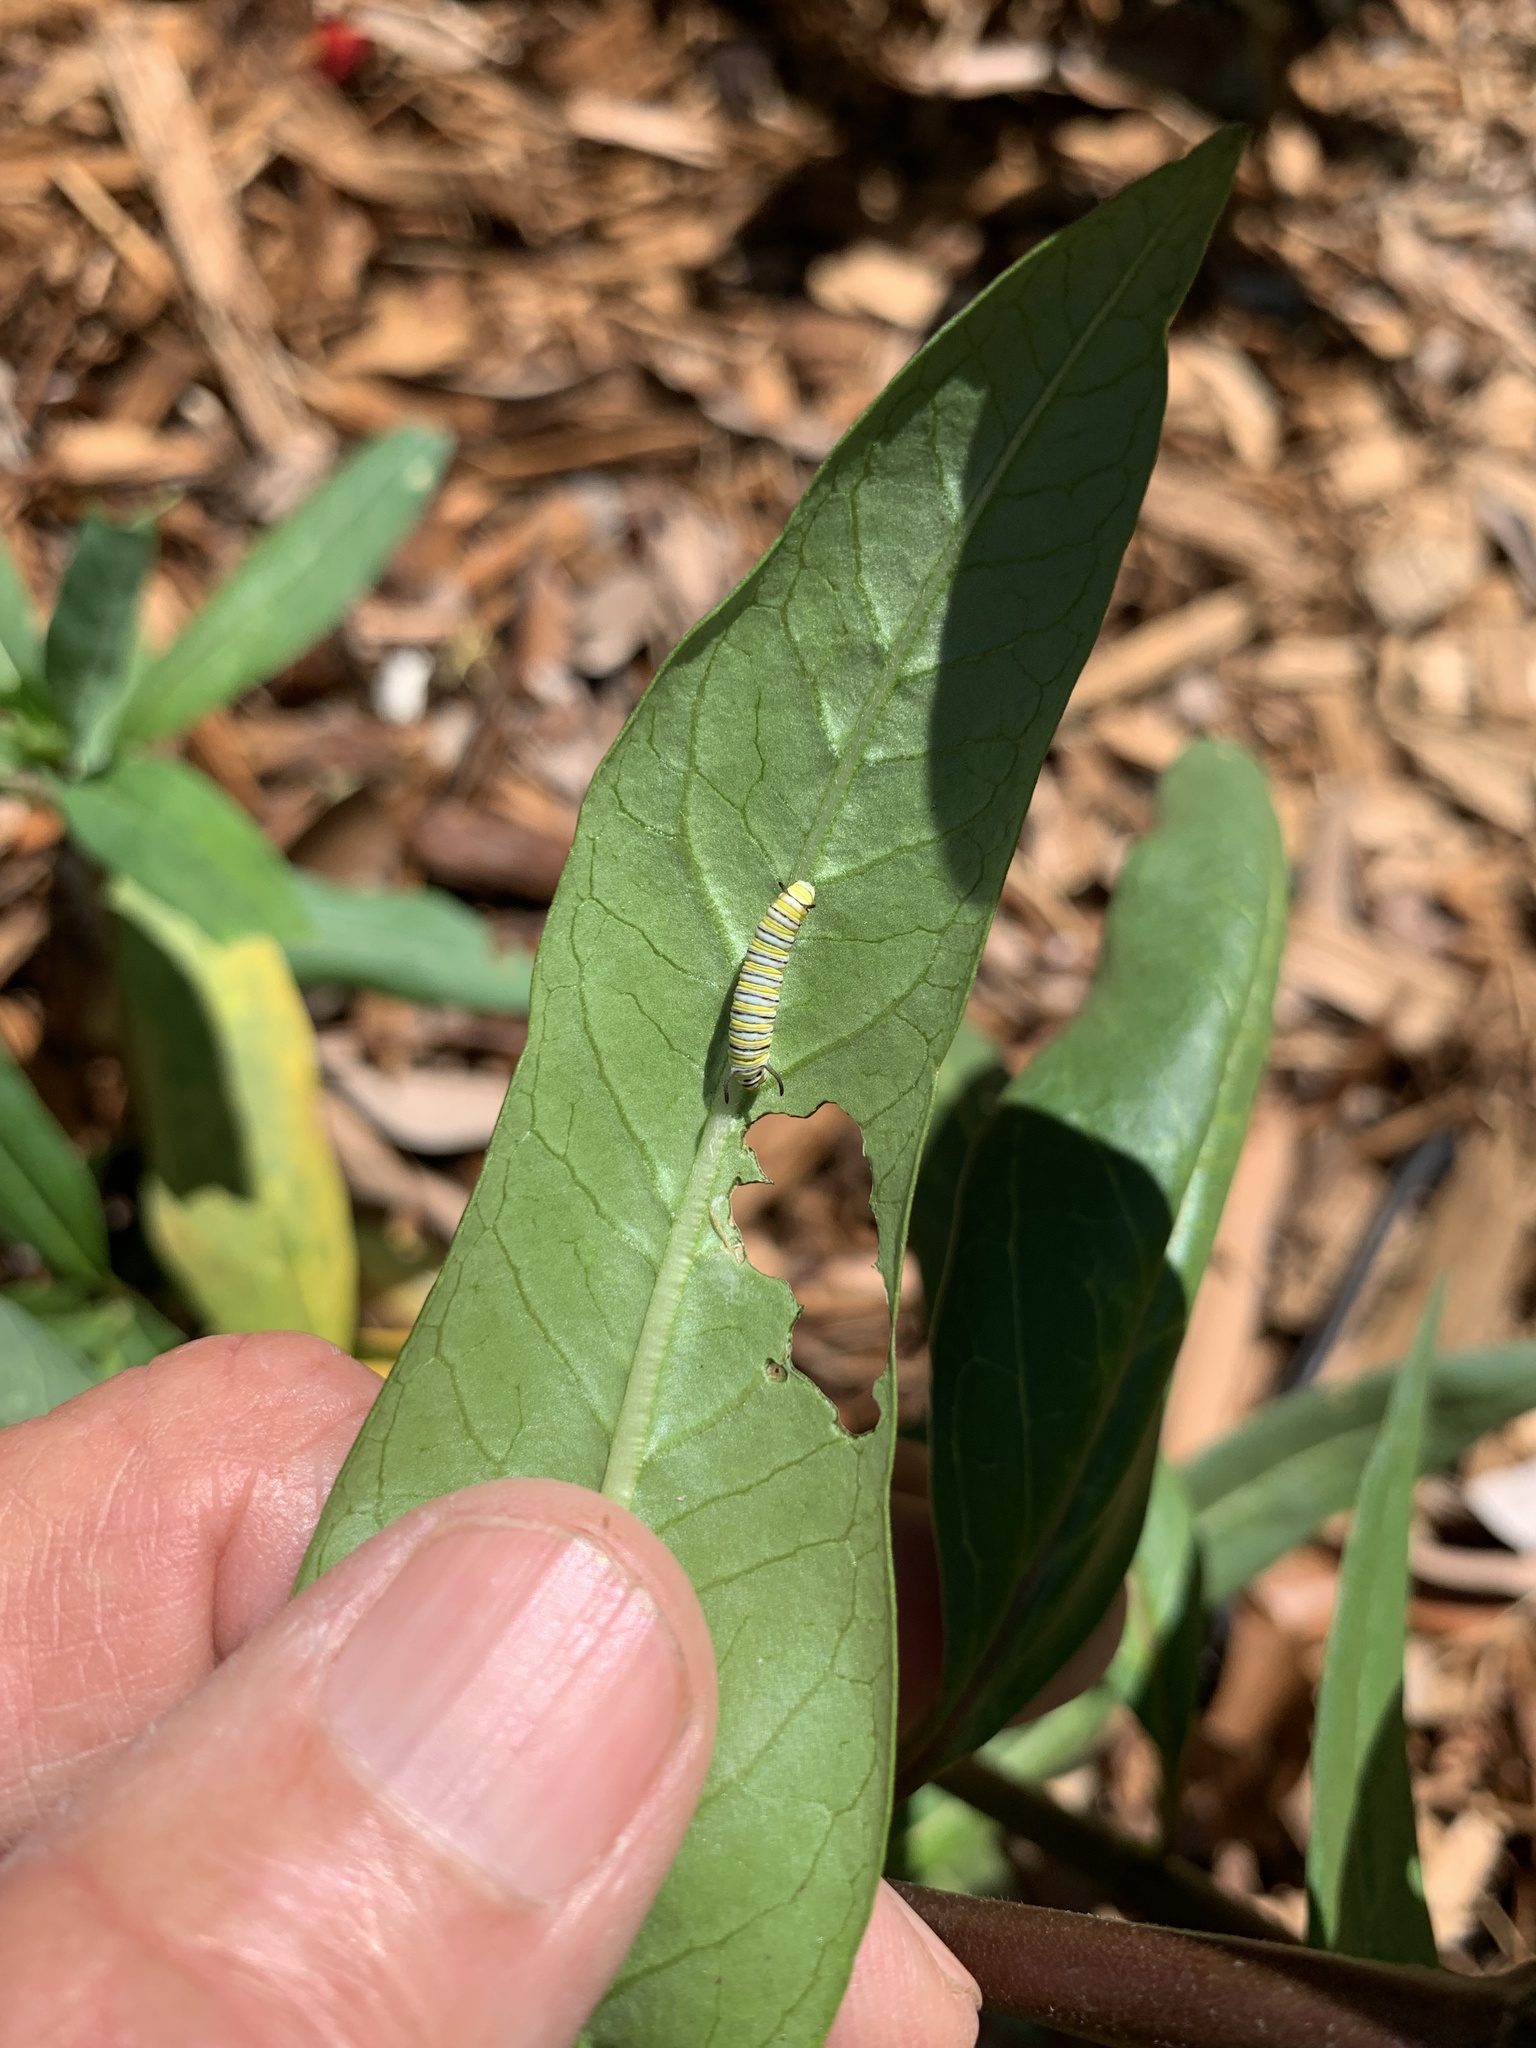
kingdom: Animalia
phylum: Arthropoda
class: Insecta
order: Lepidoptera
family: Nymphalidae
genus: Danaus
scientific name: Danaus plexippus
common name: Monarch
